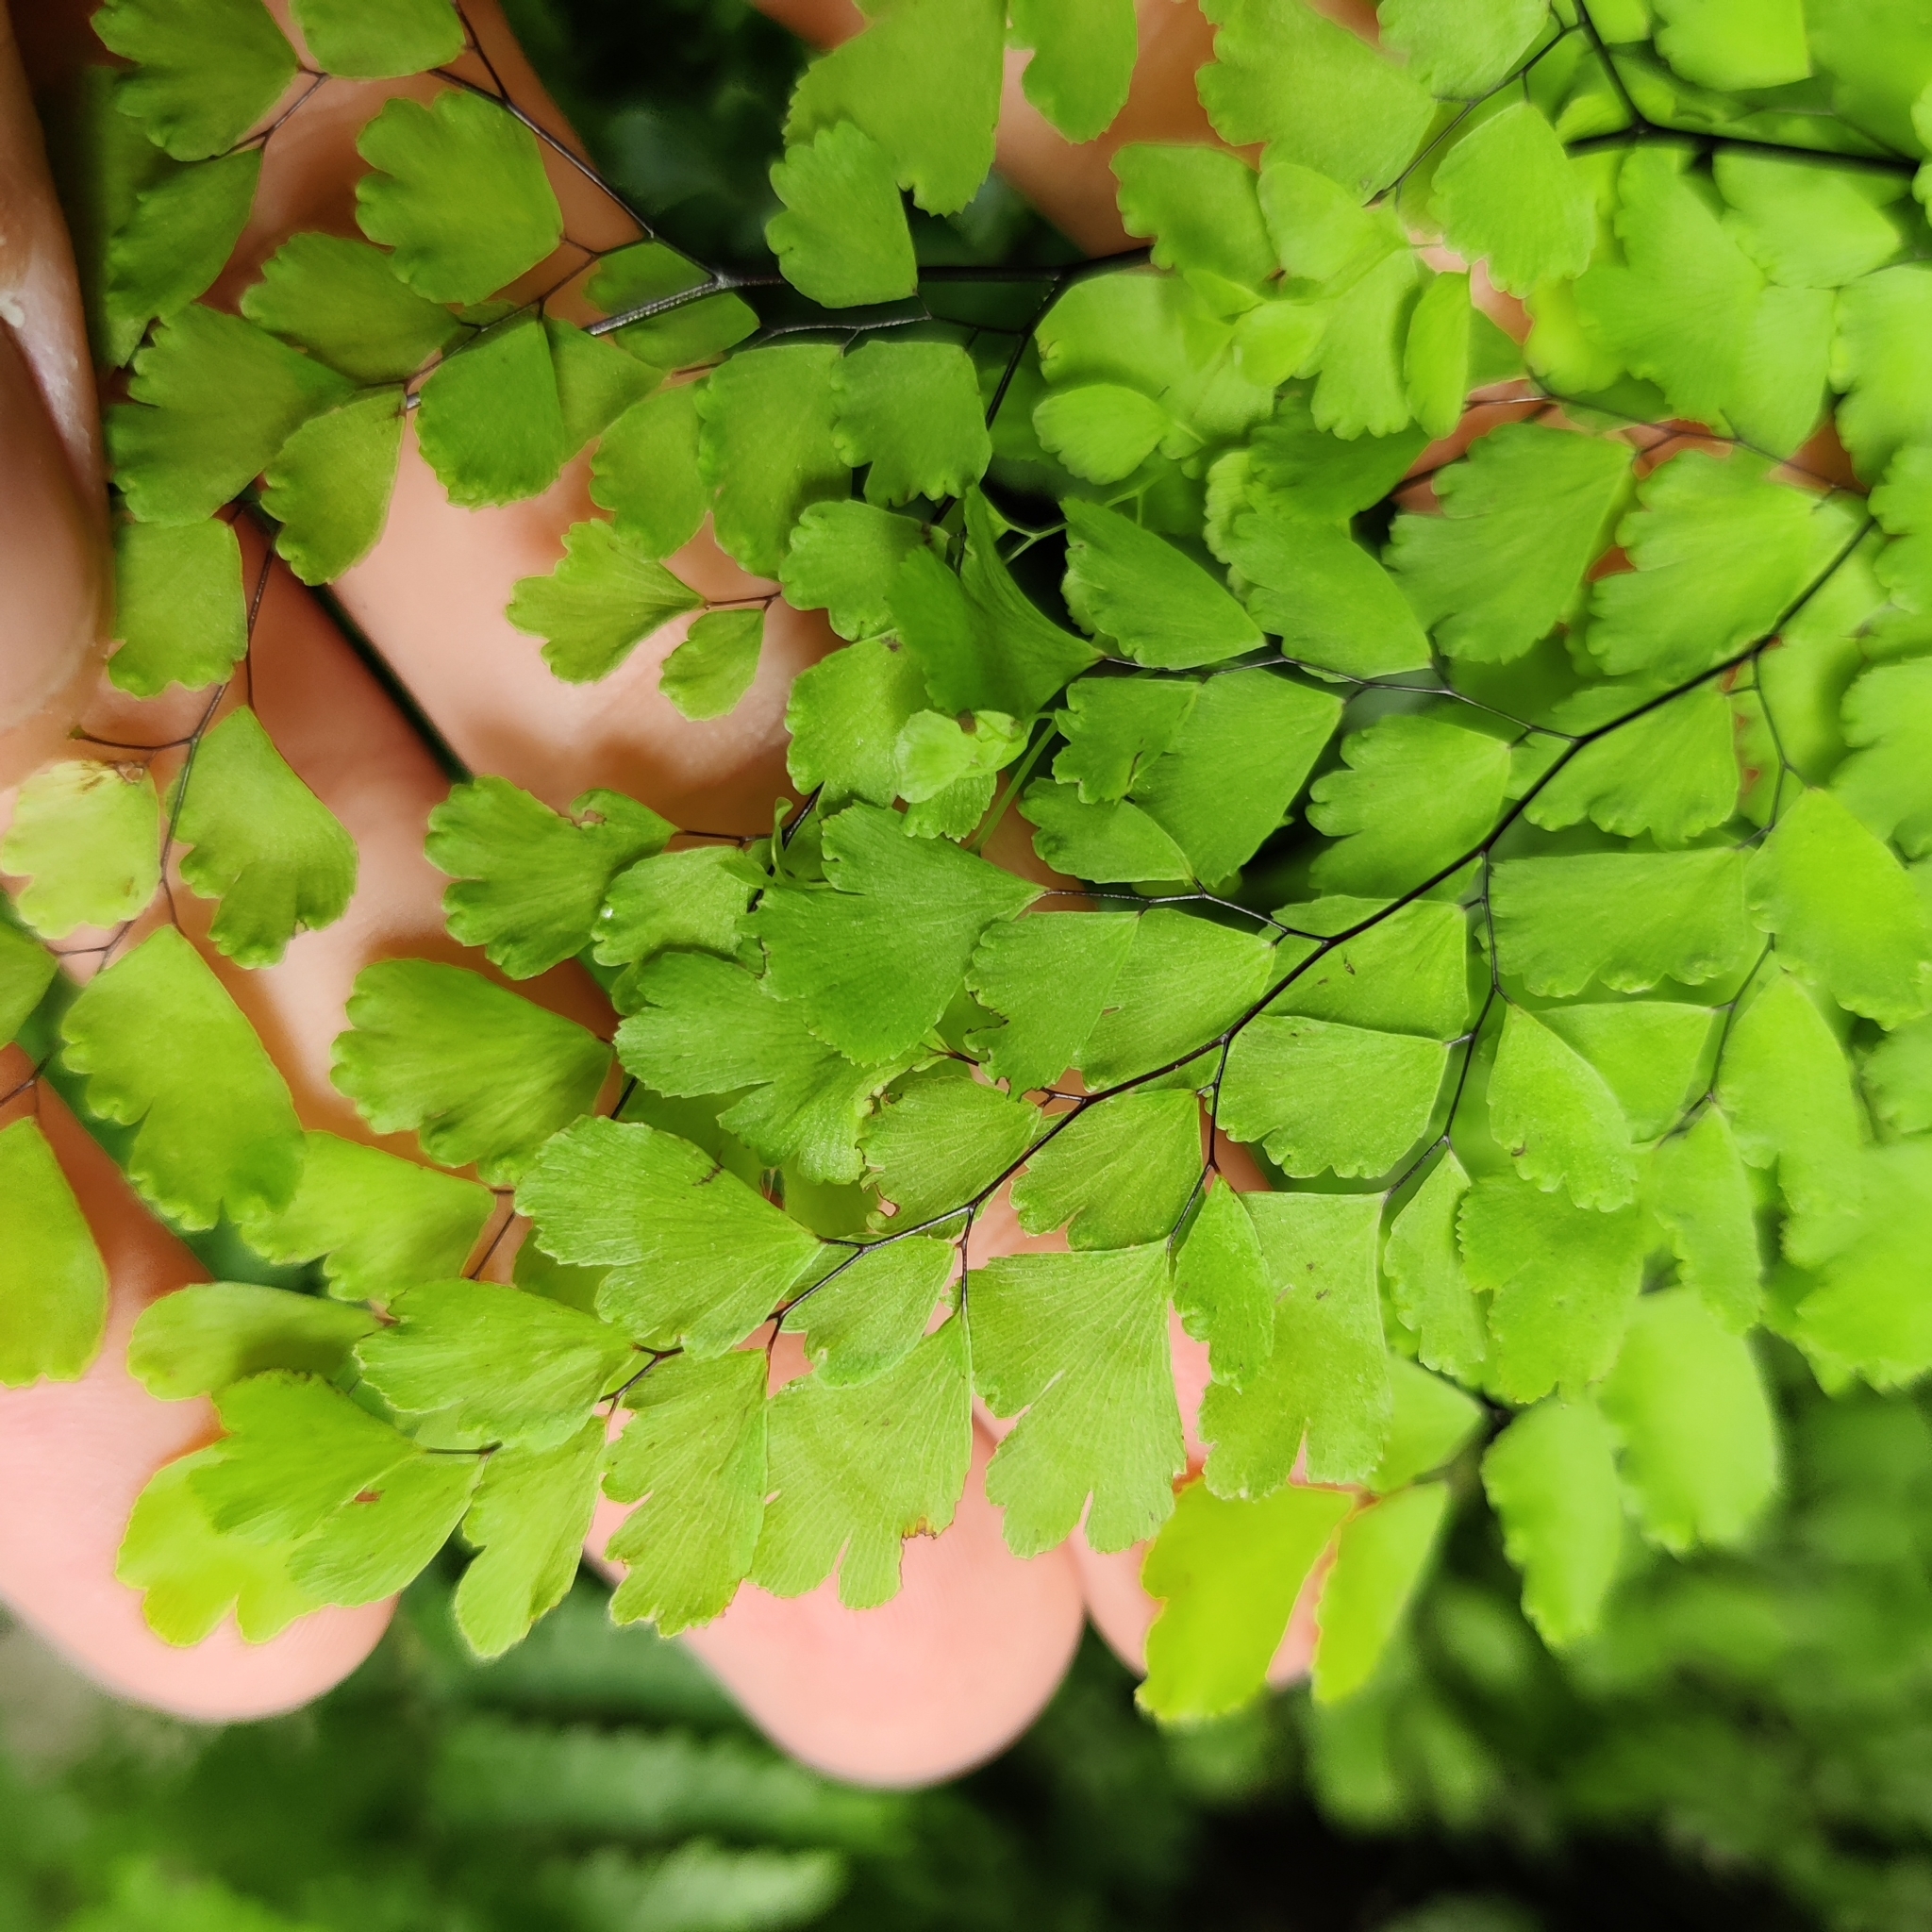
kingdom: Plantae
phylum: Tracheophyta
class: Polypodiopsida
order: Polypodiales
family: Pteridaceae
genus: Adiantum
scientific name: Adiantum raddianum
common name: Delta maidenhair fern
